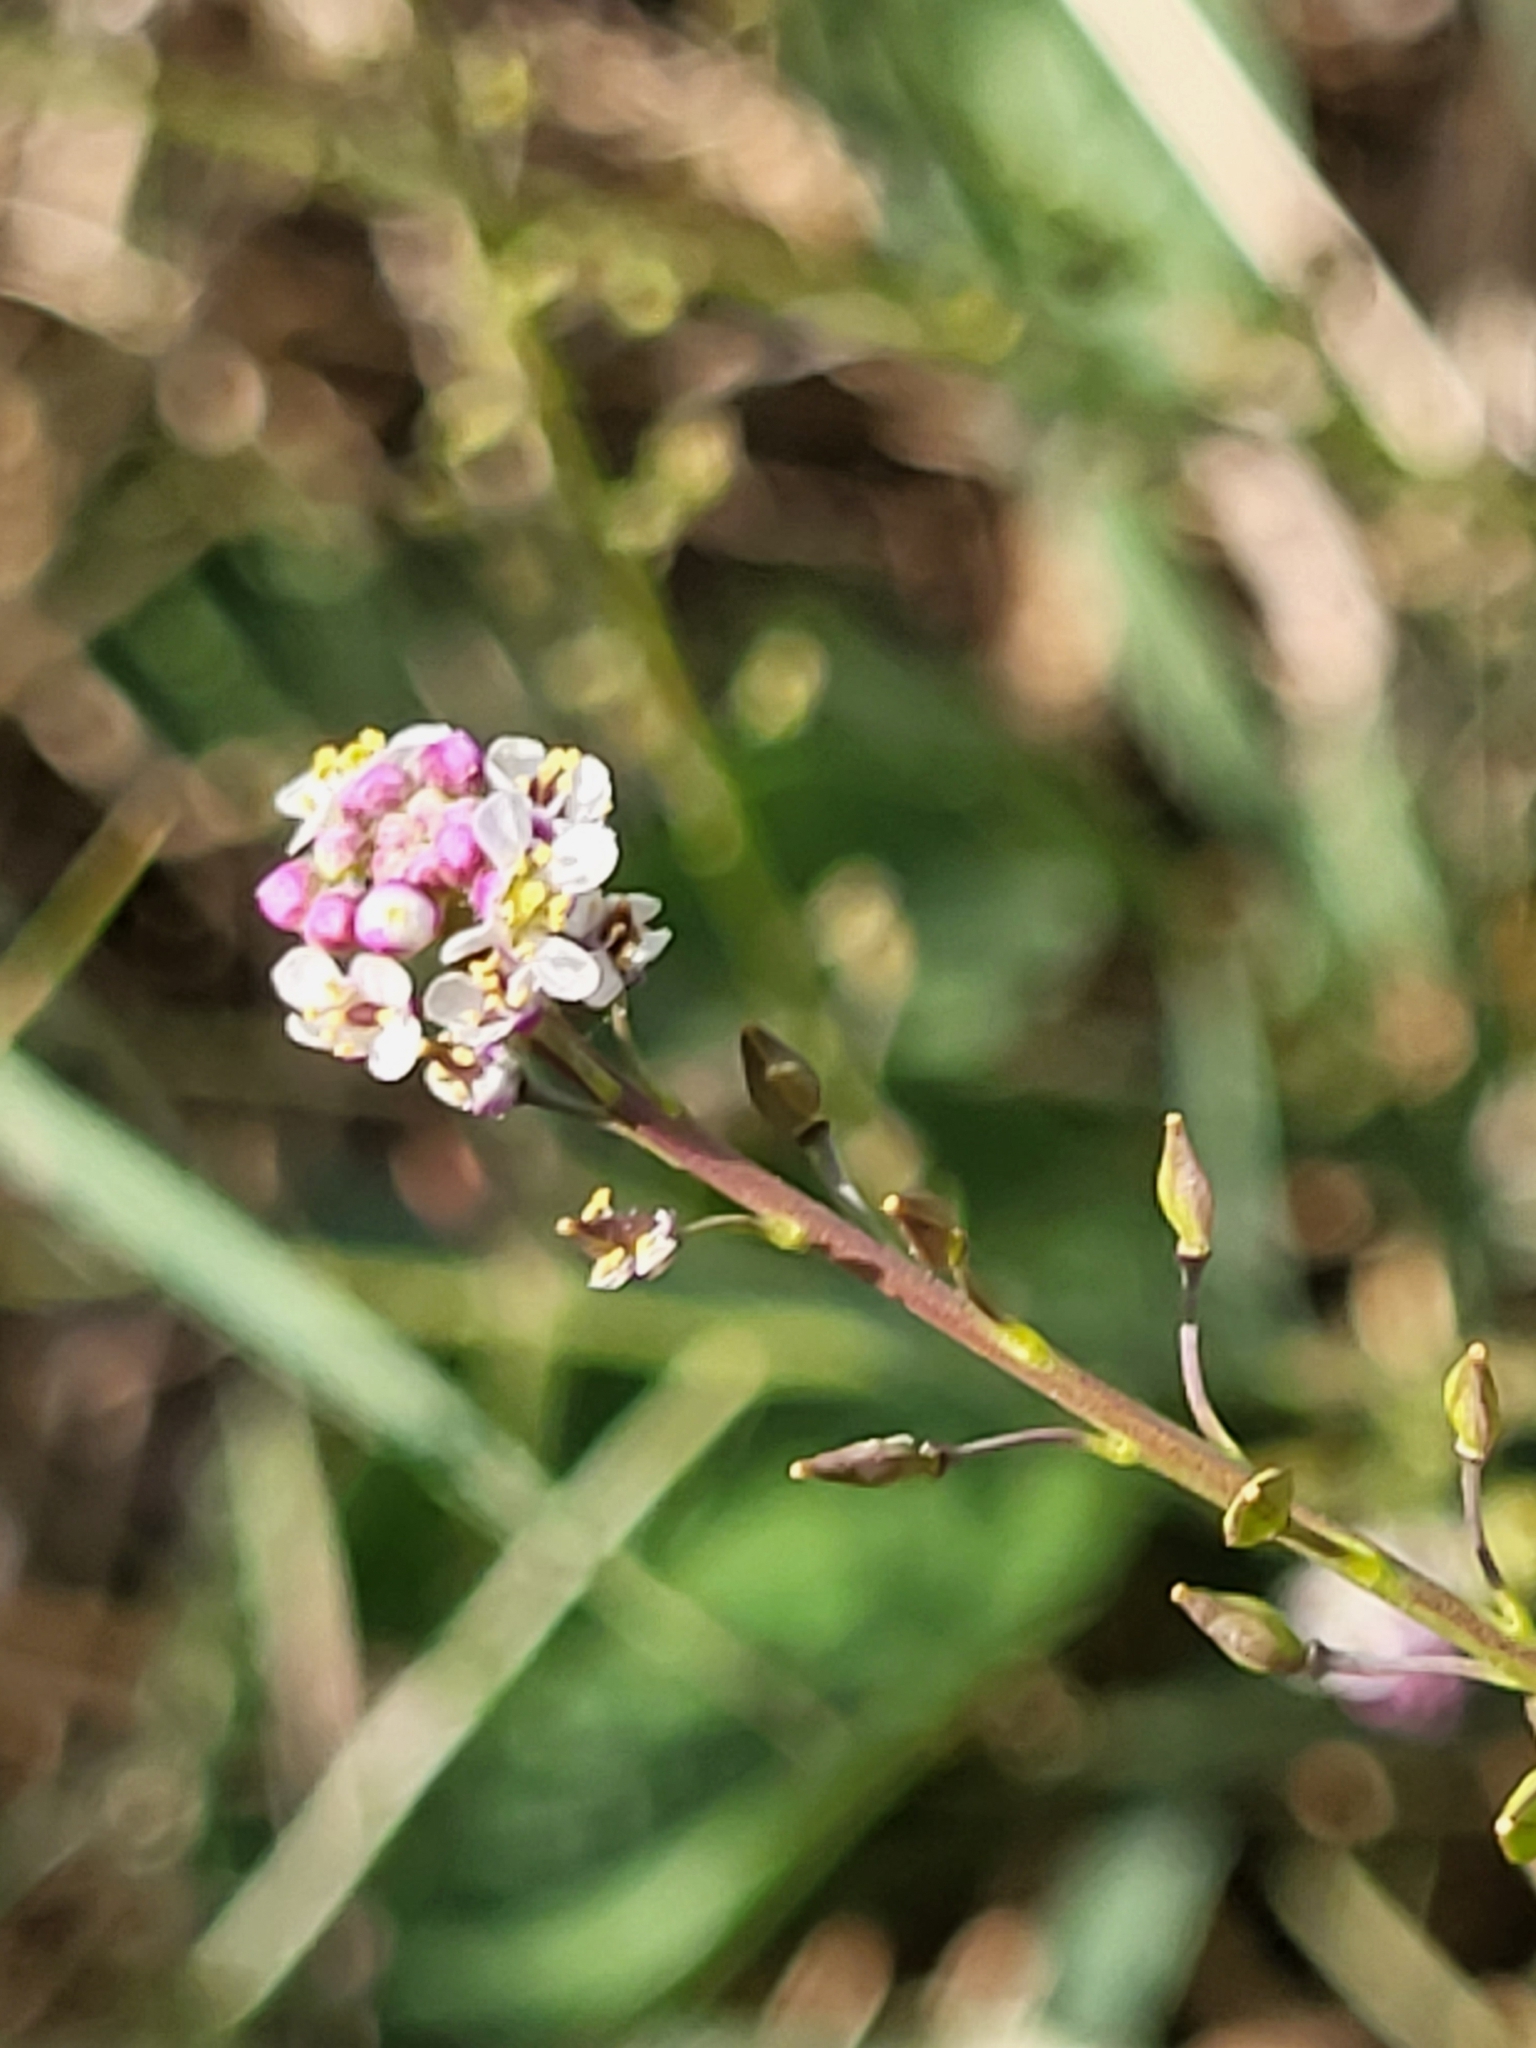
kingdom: Plantae
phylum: Tracheophyta
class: Magnoliopsida
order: Brassicales
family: Brassicaceae
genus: Lepidium
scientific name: Lepidium graminifolium
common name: Tall pepperwort
